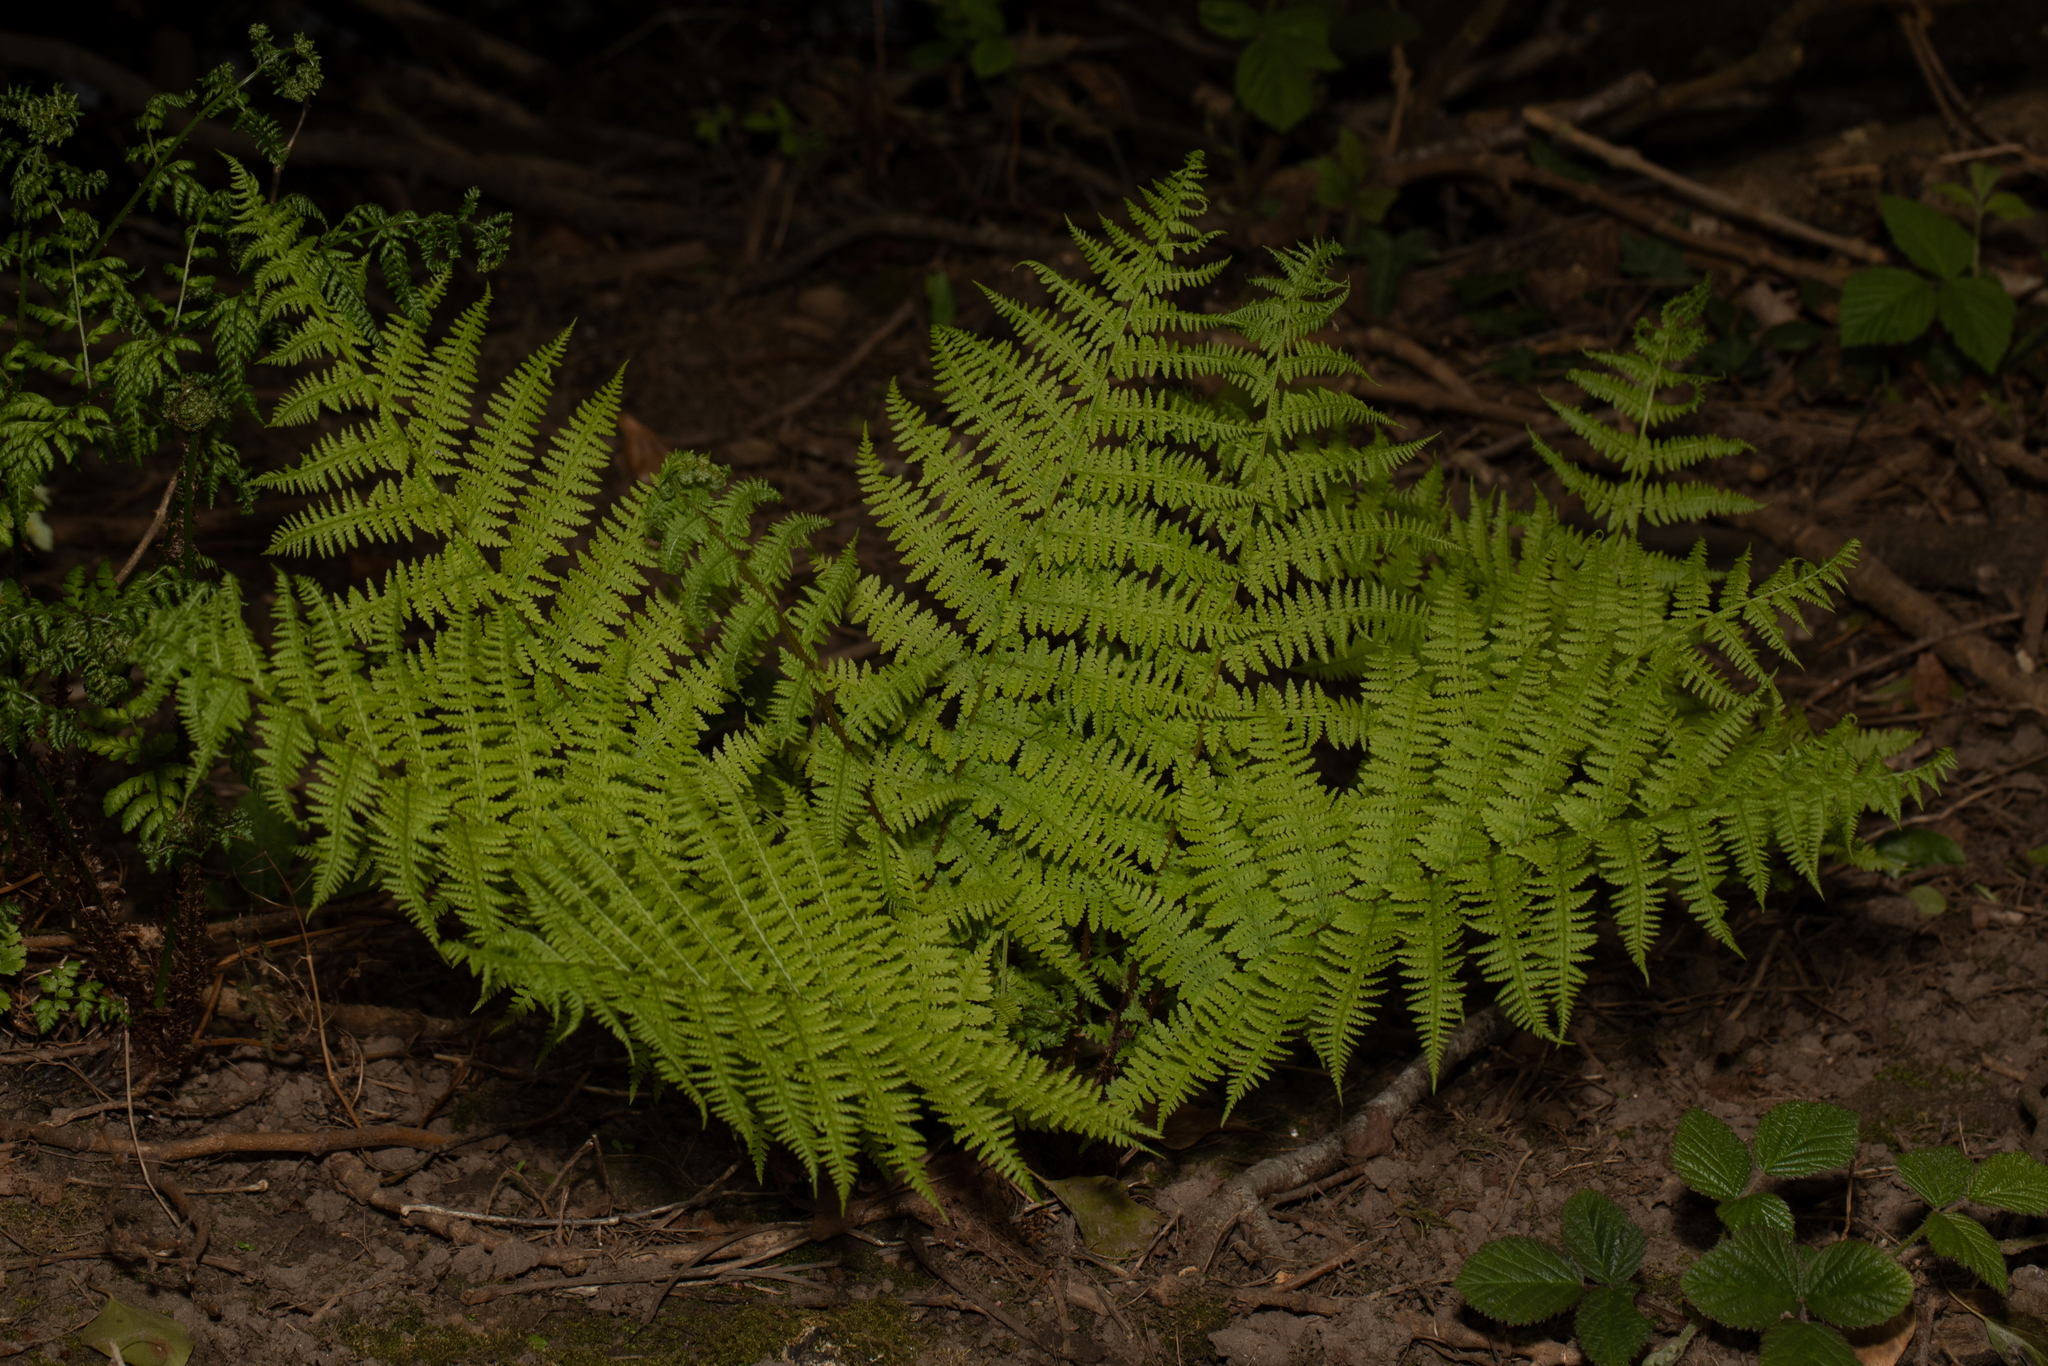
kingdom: Plantae
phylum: Tracheophyta
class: Polypodiopsida
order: Polypodiales
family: Athyriaceae
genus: Athyrium
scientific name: Athyrium filix-femina
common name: Lady fern
